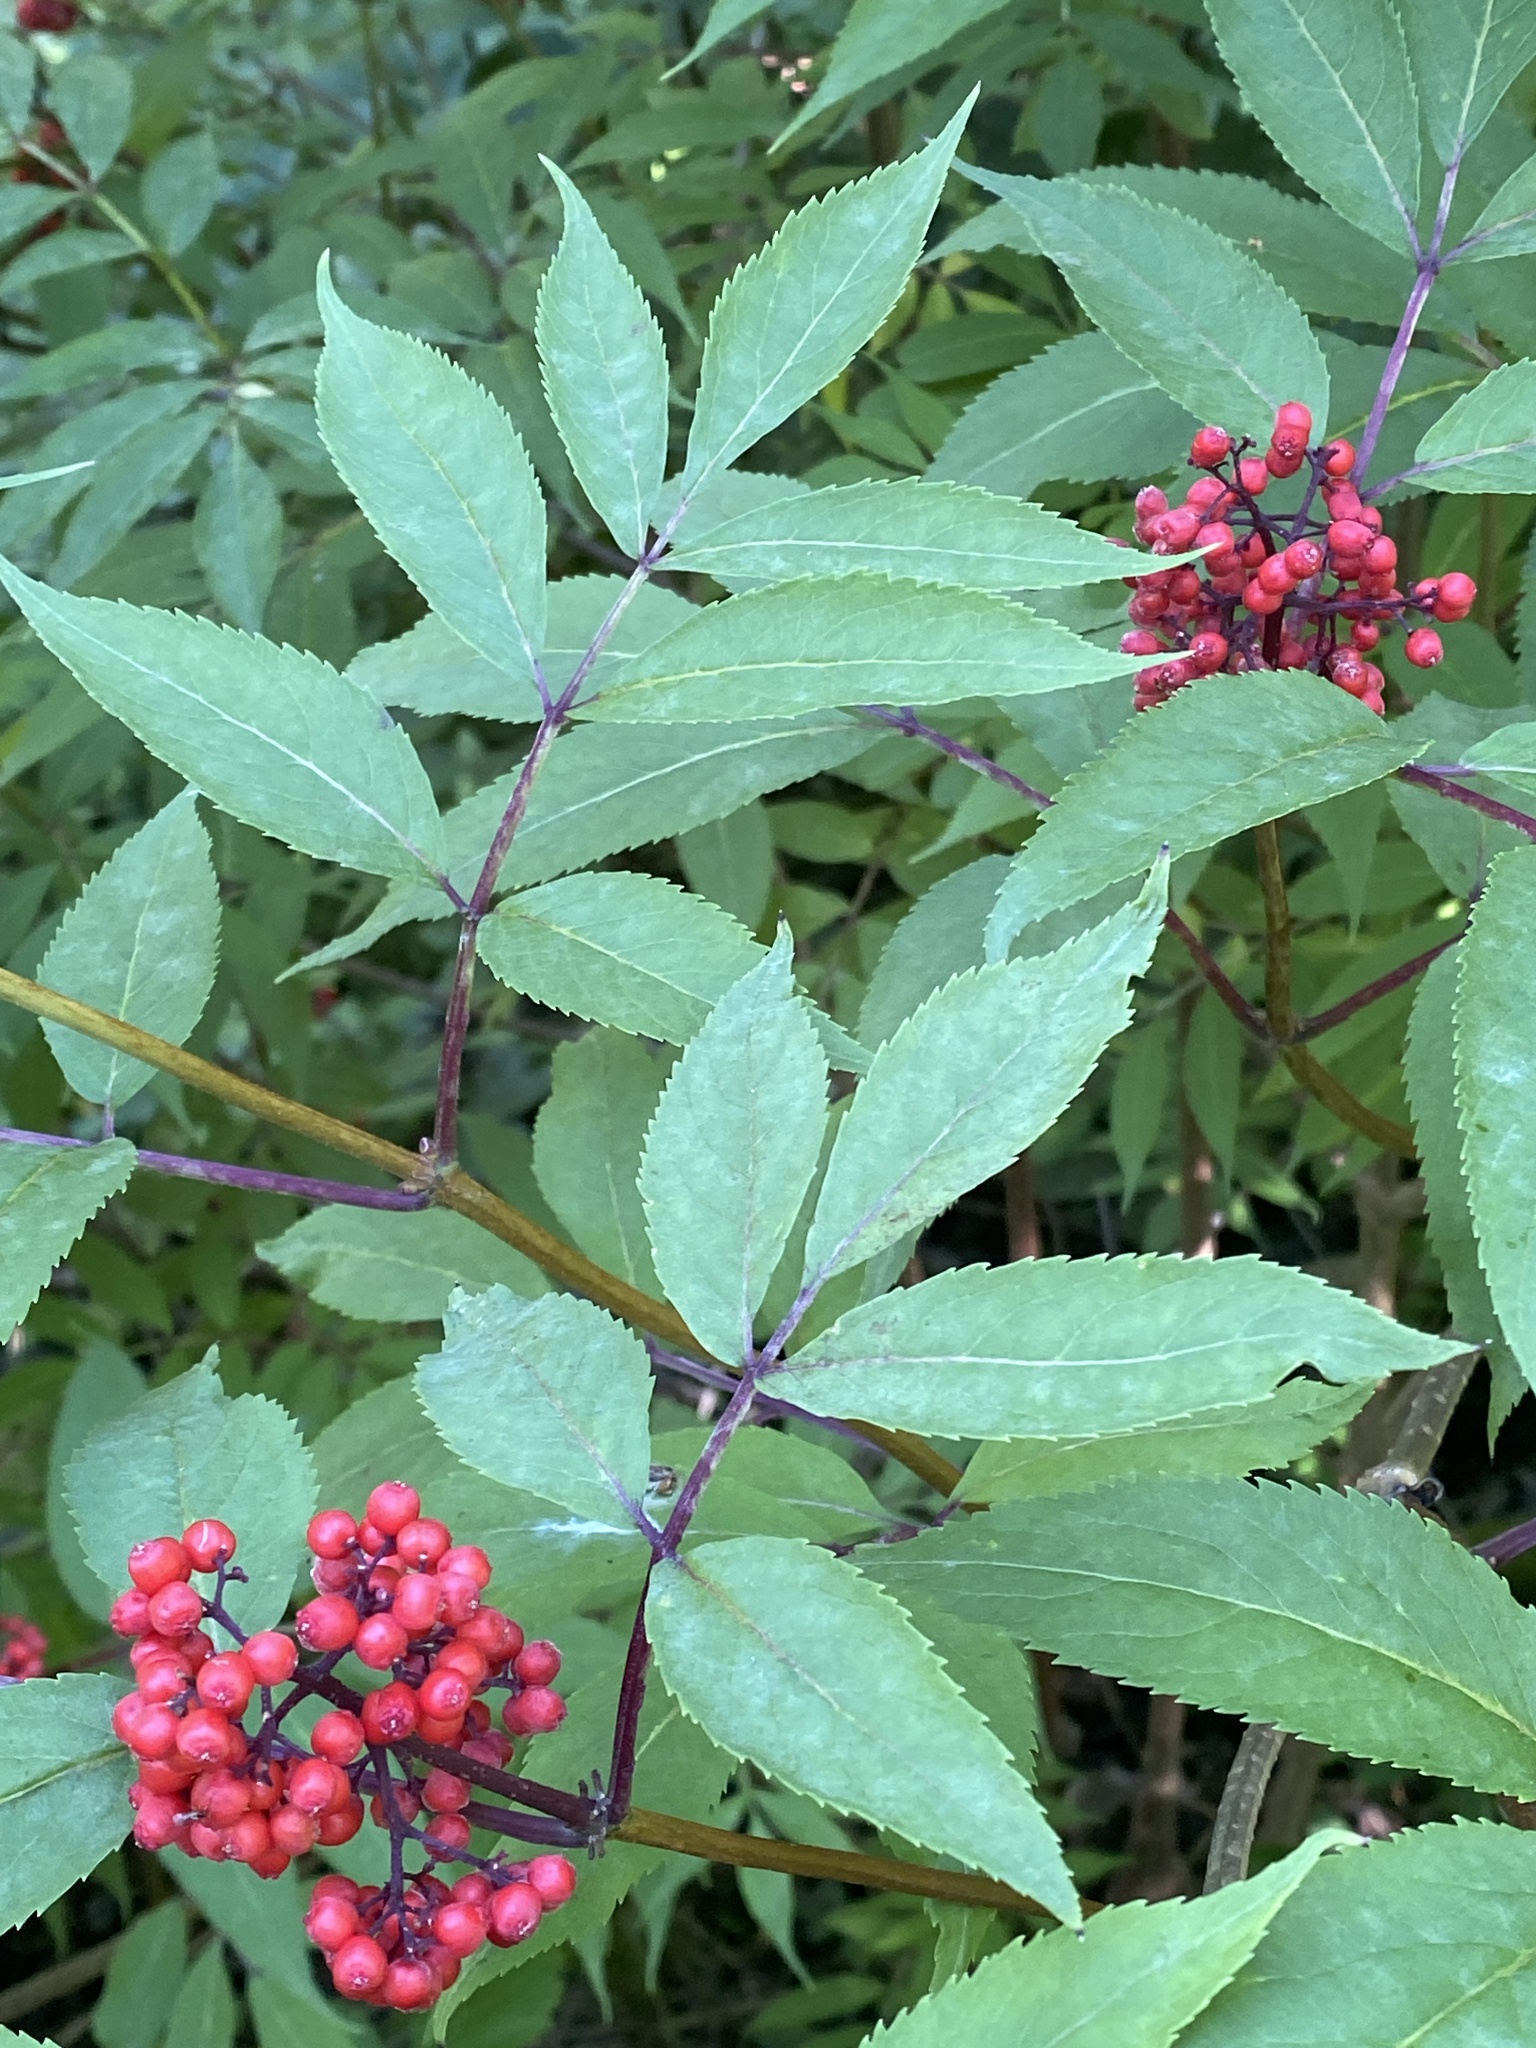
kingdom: Plantae
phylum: Tracheophyta
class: Magnoliopsida
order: Dipsacales
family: Viburnaceae
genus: Sambucus
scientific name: Sambucus racemosa
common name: Red-berried elder
